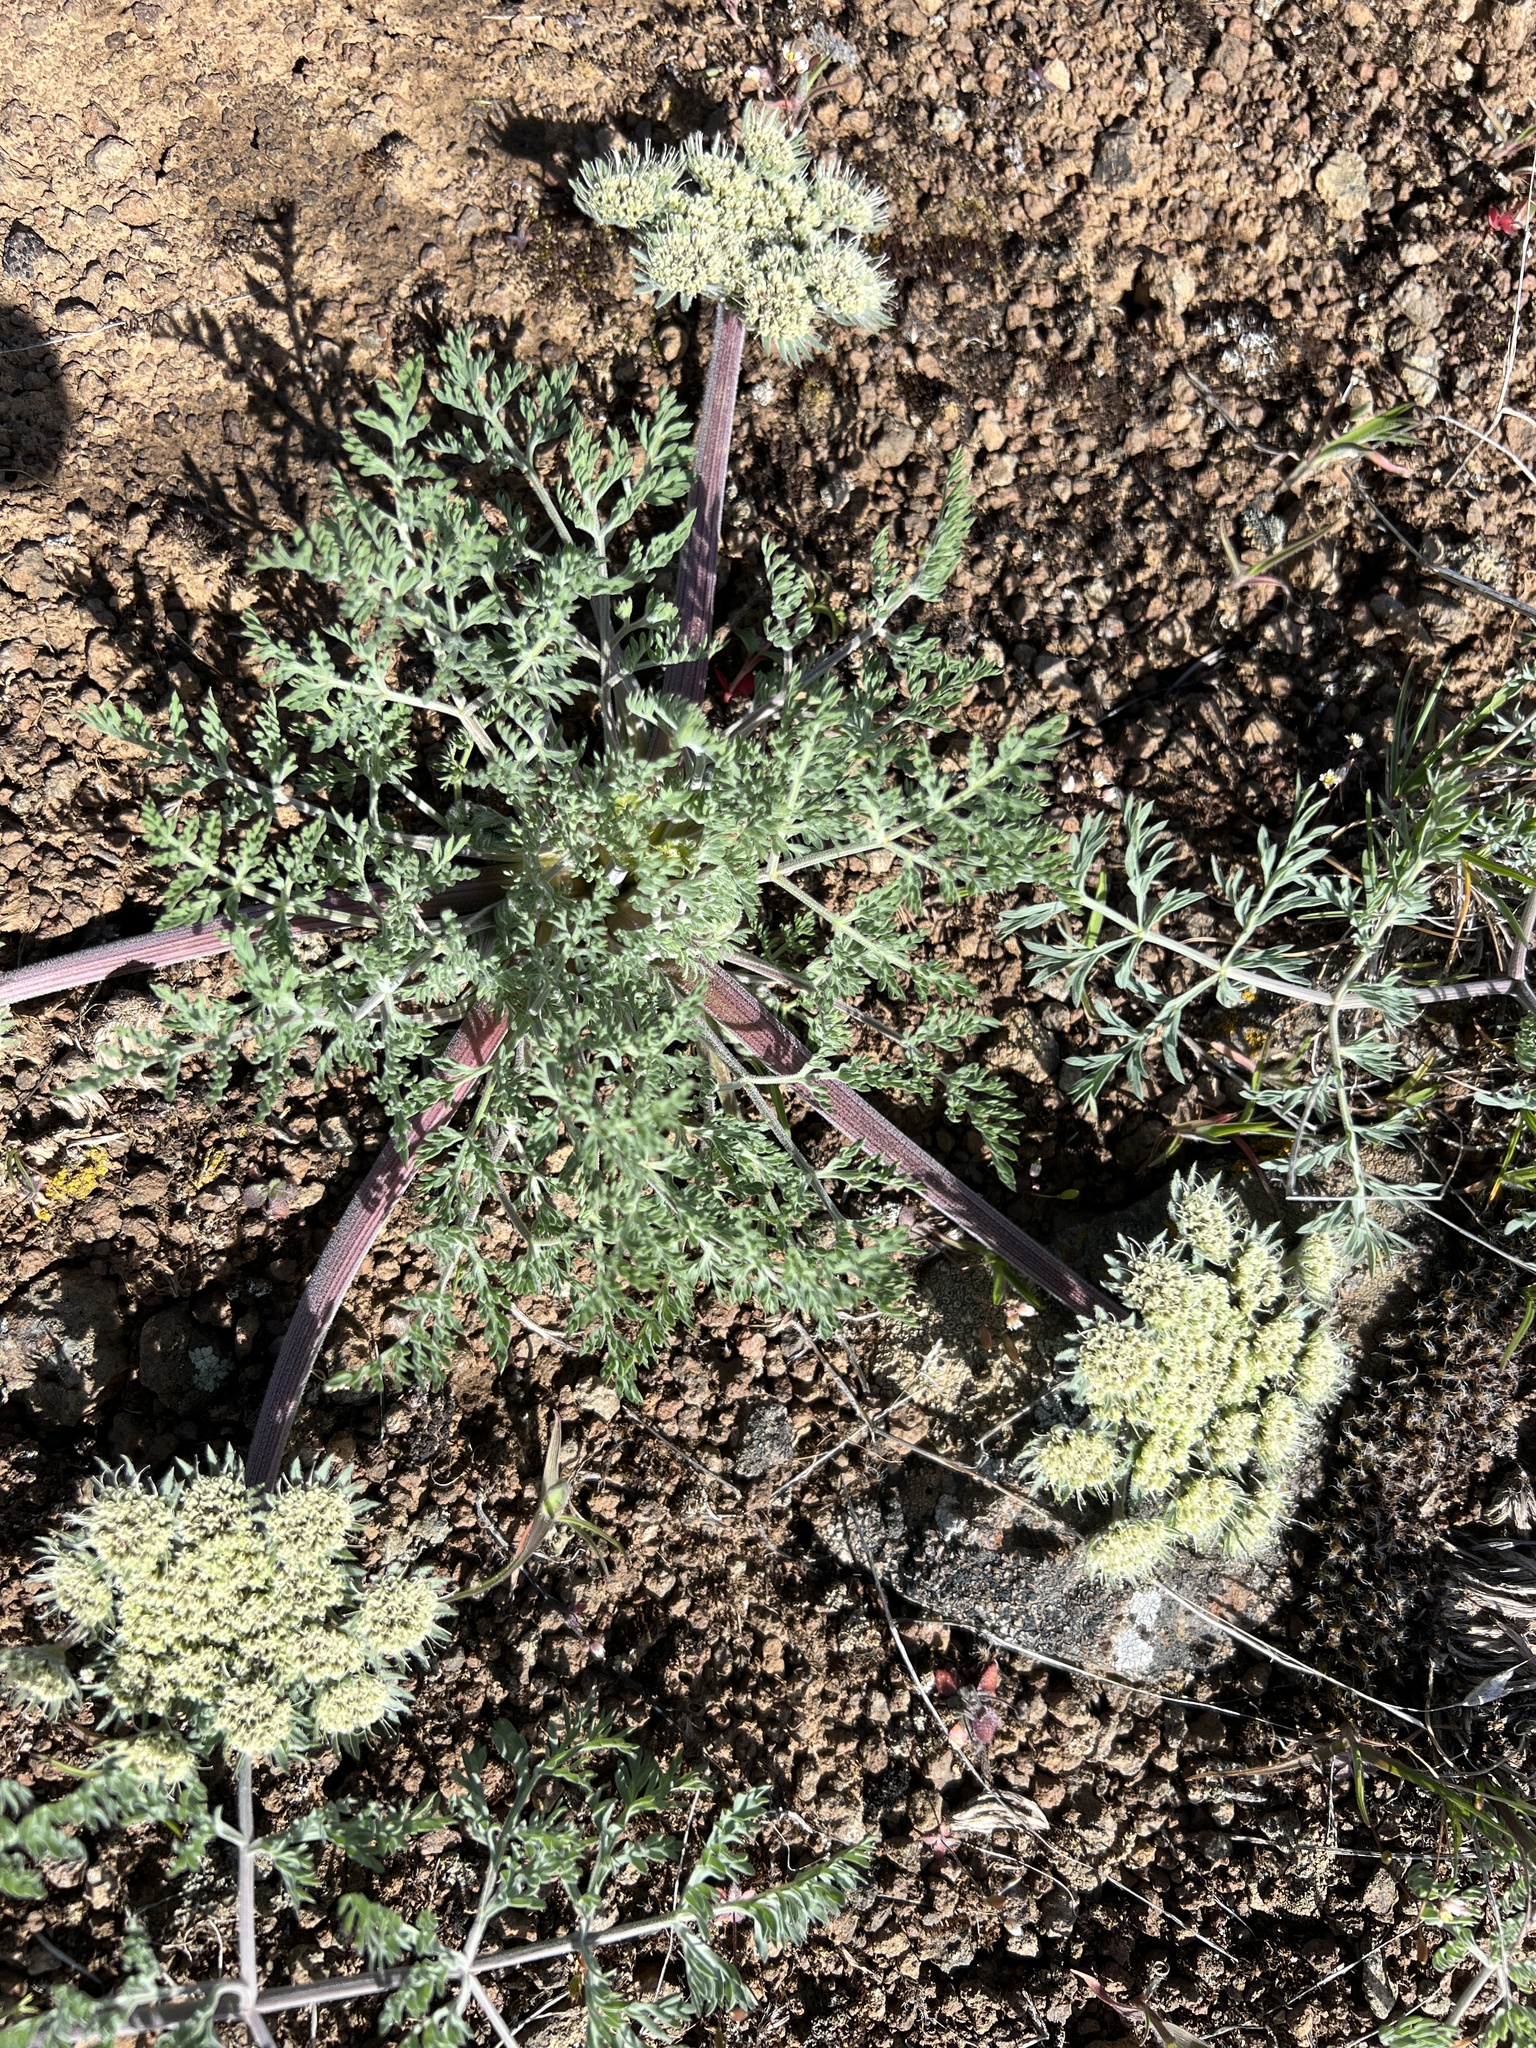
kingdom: Plantae
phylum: Tracheophyta
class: Magnoliopsida
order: Apiales
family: Apiaceae
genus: Lomatium
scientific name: Lomatium macrocarpum
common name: Big-seed biscuitroot
